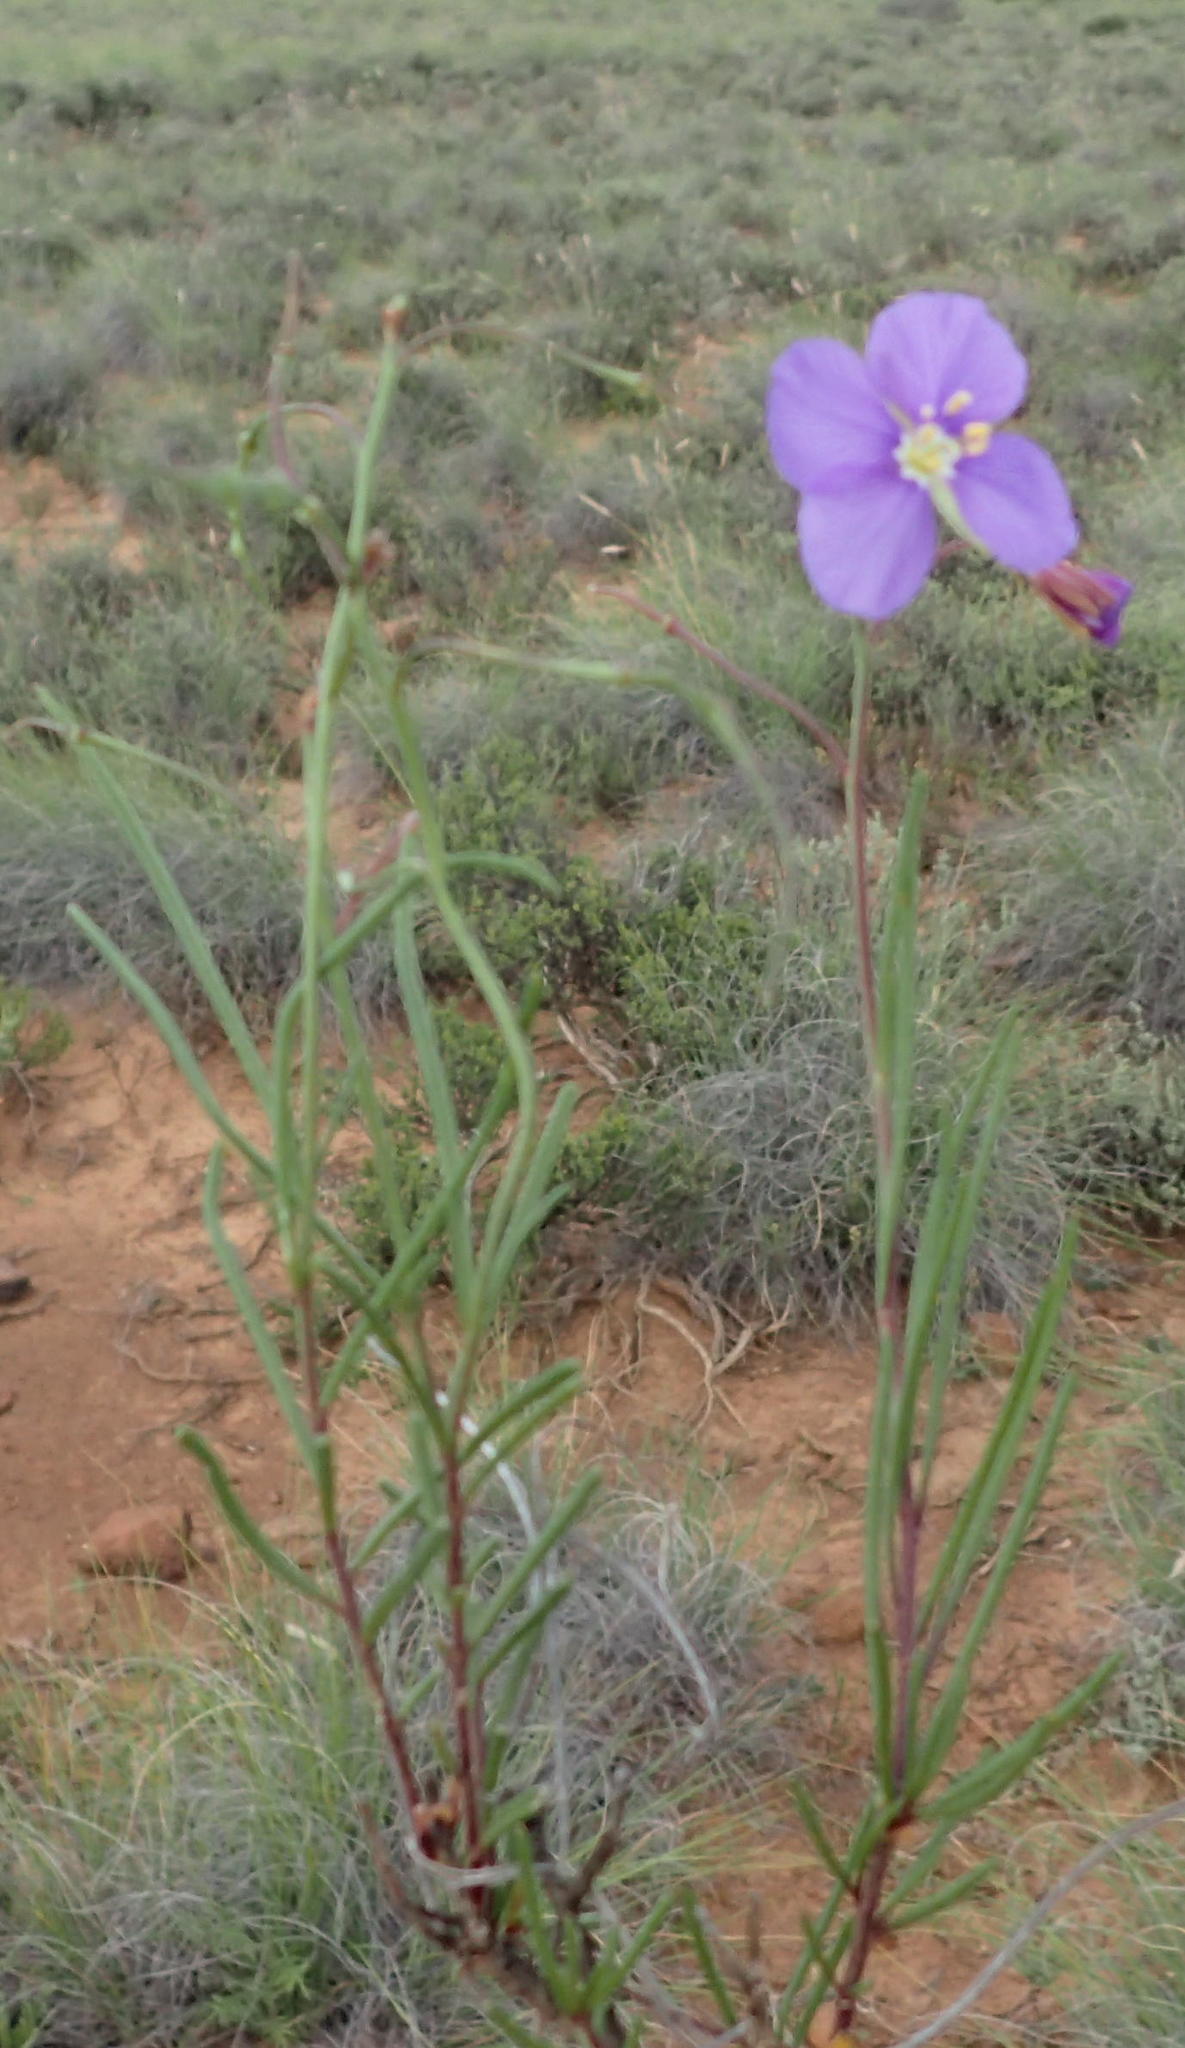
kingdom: Plantae
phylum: Tracheophyta
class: Magnoliopsida
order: Brassicales
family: Brassicaceae
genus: Heliophila
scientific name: Heliophila suavissima
